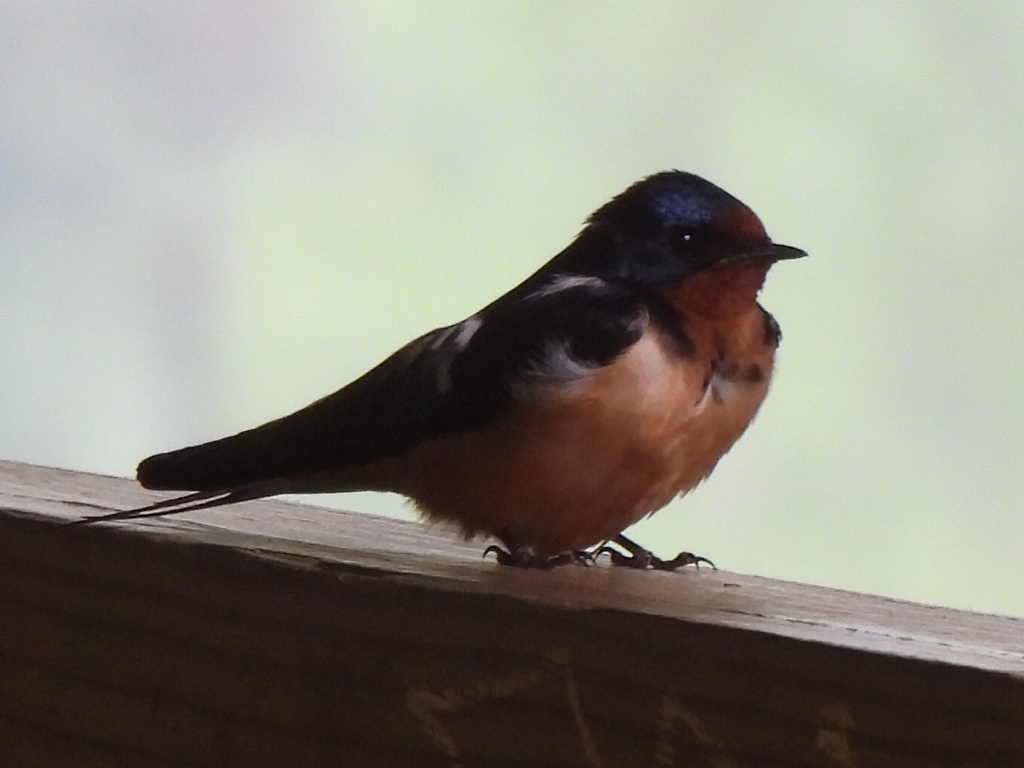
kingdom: Animalia
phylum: Chordata
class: Aves
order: Passeriformes
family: Hirundinidae
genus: Hirundo
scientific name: Hirundo rustica
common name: Barn swallow
